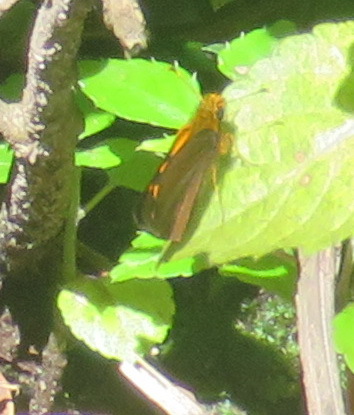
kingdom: Animalia
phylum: Arthropoda
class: Insecta
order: Lepidoptera
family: Hesperiidae
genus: Metisella
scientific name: Metisella metis
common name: Western gold-spotted sylph
